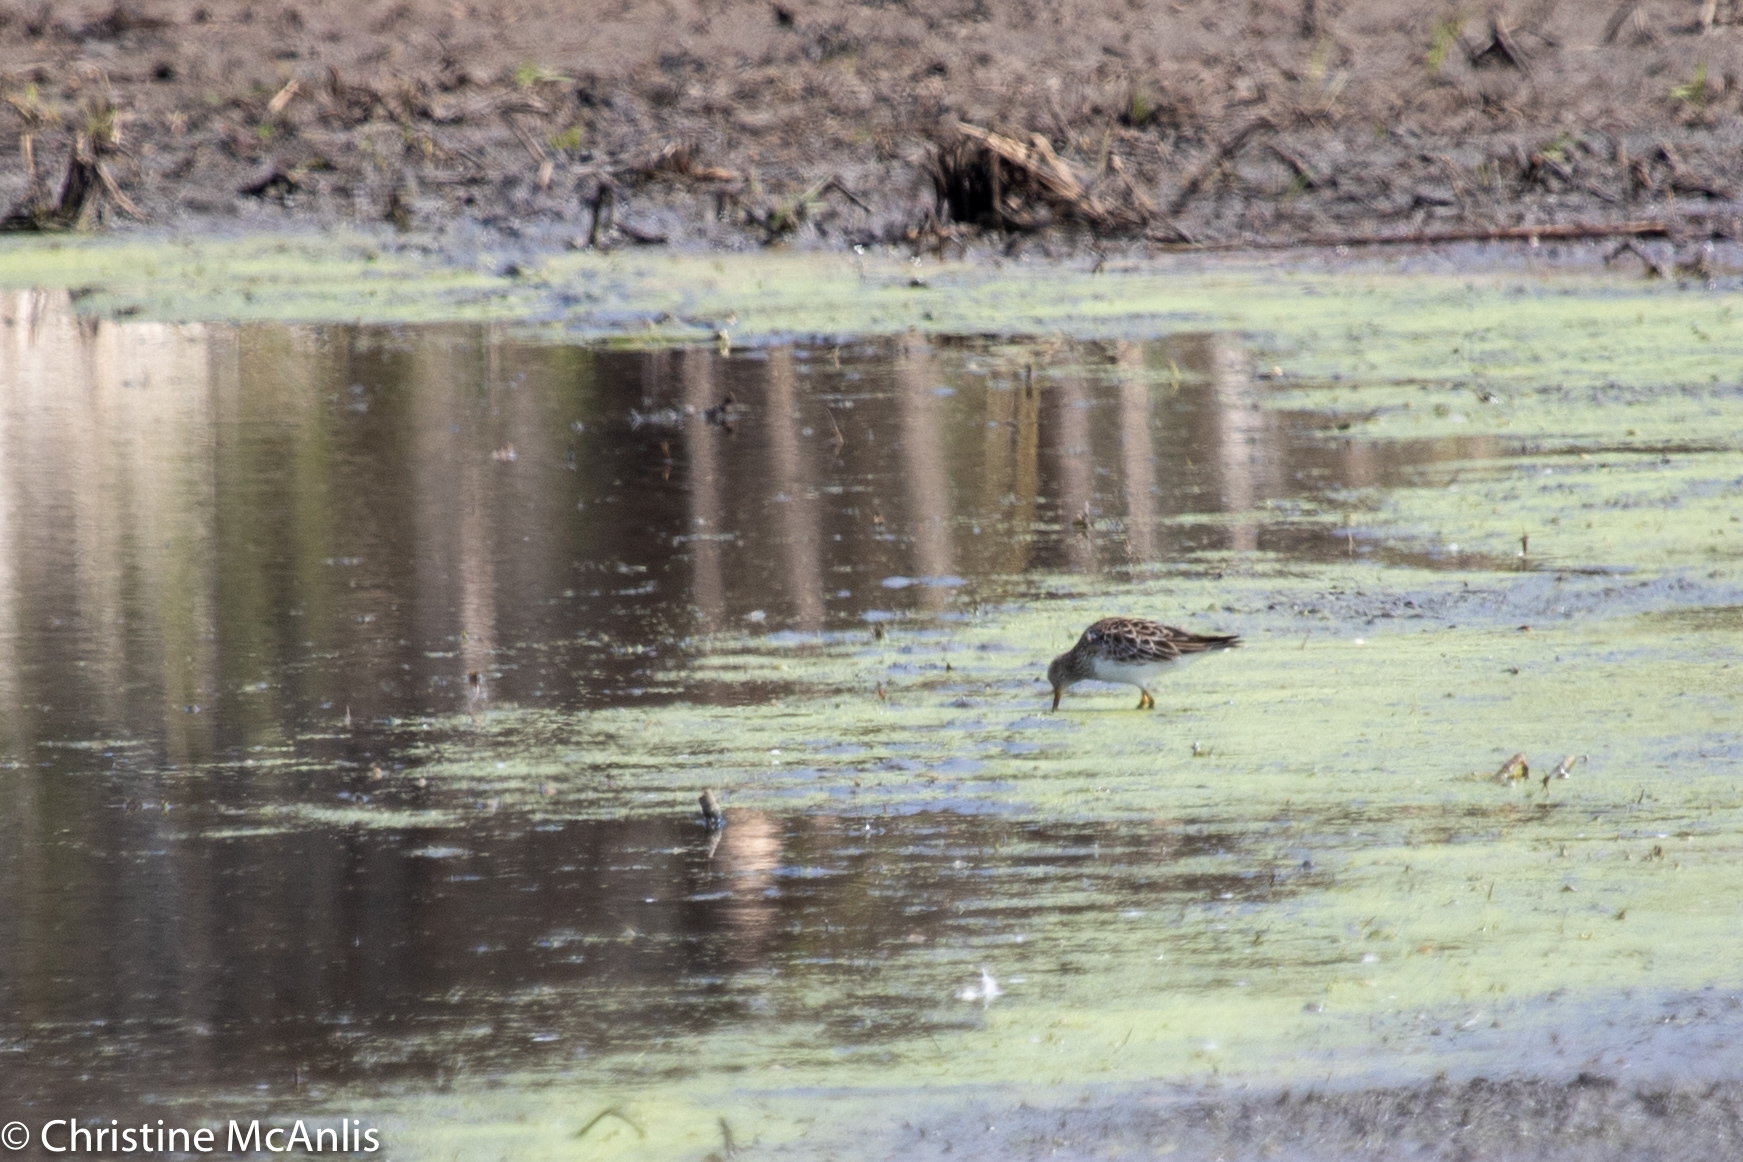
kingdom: Animalia
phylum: Chordata
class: Aves
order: Charadriiformes
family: Scolopacidae
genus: Calidris
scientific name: Calidris melanotos
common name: Pectoral sandpiper
